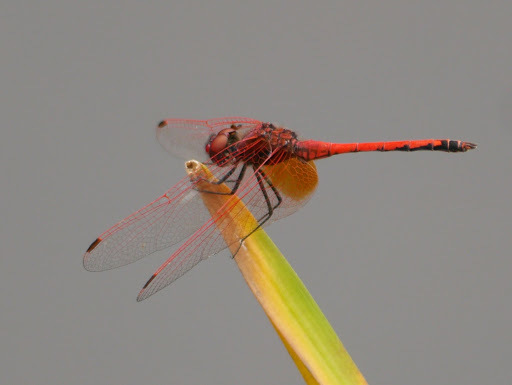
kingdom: Animalia
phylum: Arthropoda
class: Insecta
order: Odonata
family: Libellulidae
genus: Trithemis
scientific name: Trithemis arteriosa
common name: Red-veined dropwing
